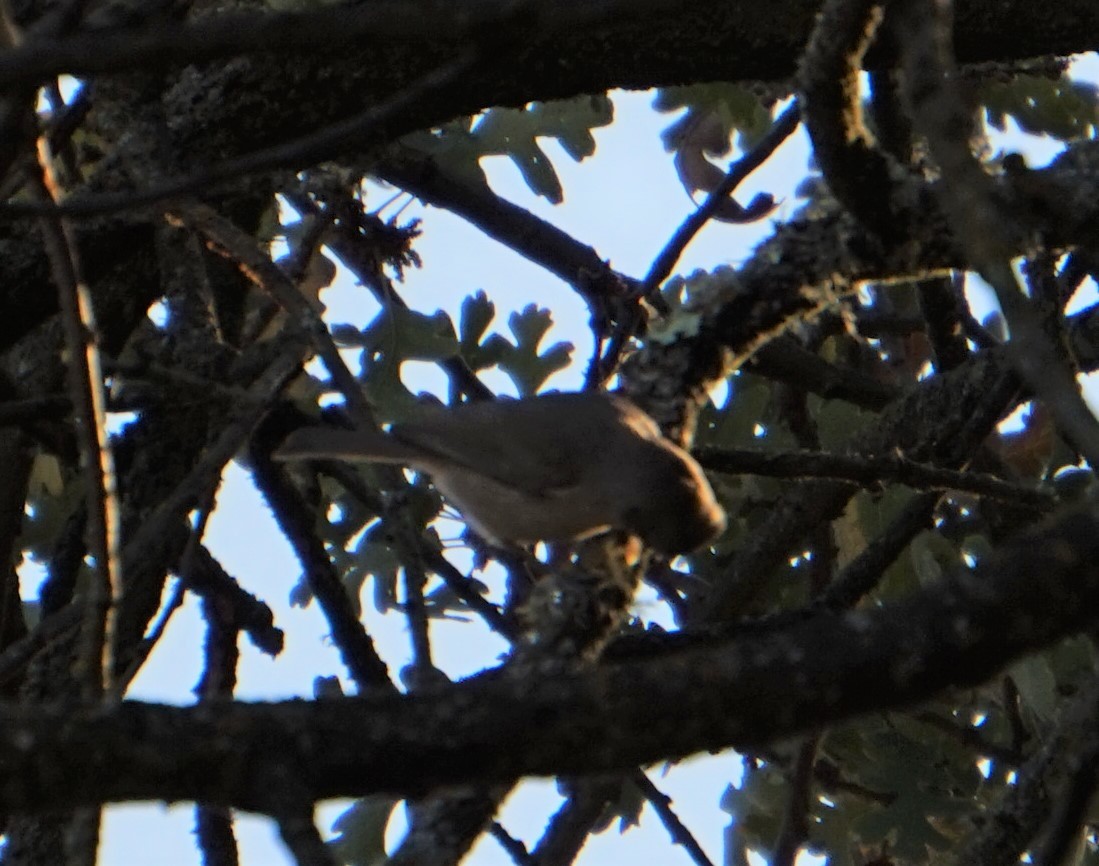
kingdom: Animalia
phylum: Chordata
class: Aves
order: Passeriformes
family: Paridae
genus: Baeolophus
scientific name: Baeolophus inornatus
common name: Oak titmouse
